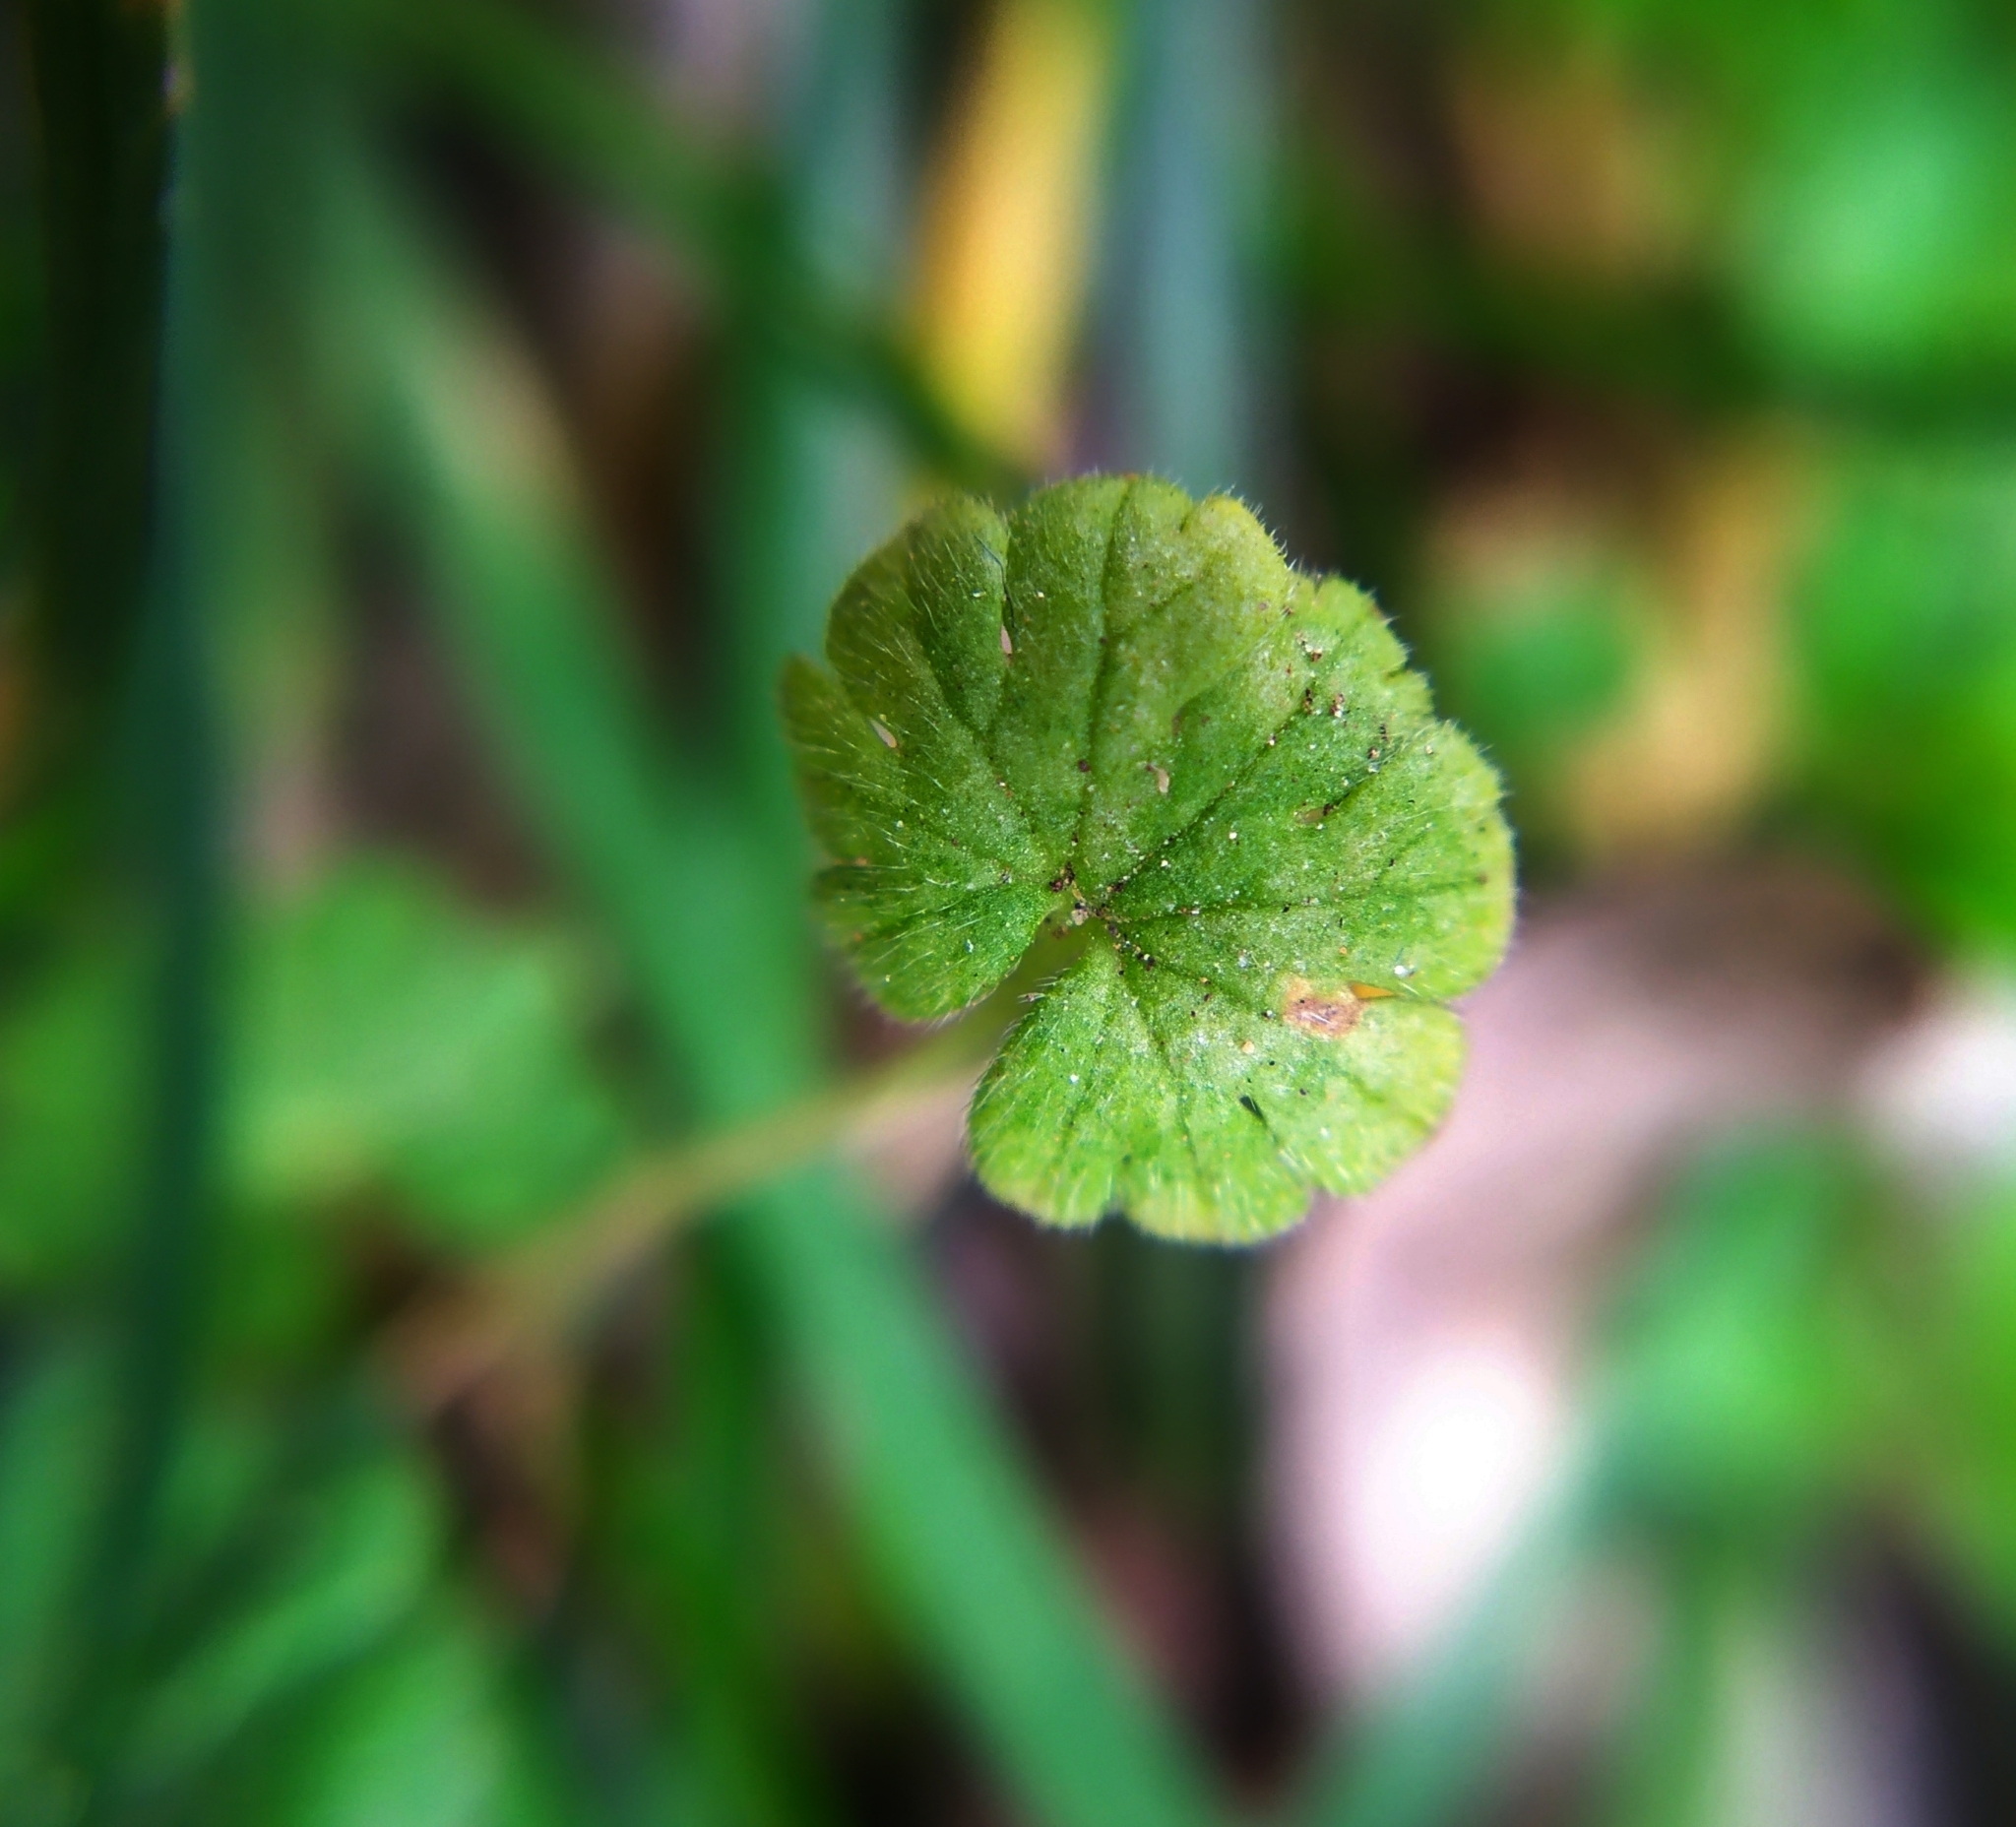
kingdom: Chromista
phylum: Oomycota
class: Peronosporea
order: Peronosporales
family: Peronosporaceae
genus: Peronospora
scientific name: Peronospora conglomerata
